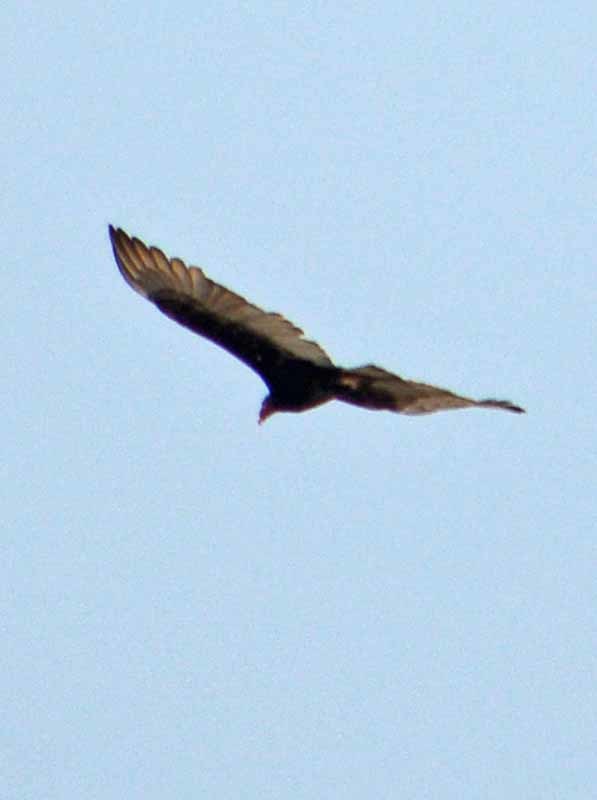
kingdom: Animalia
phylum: Chordata
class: Aves
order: Accipitriformes
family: Cathartidae
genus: Cathartes
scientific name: Cathartes aura
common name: Turkey vulture
